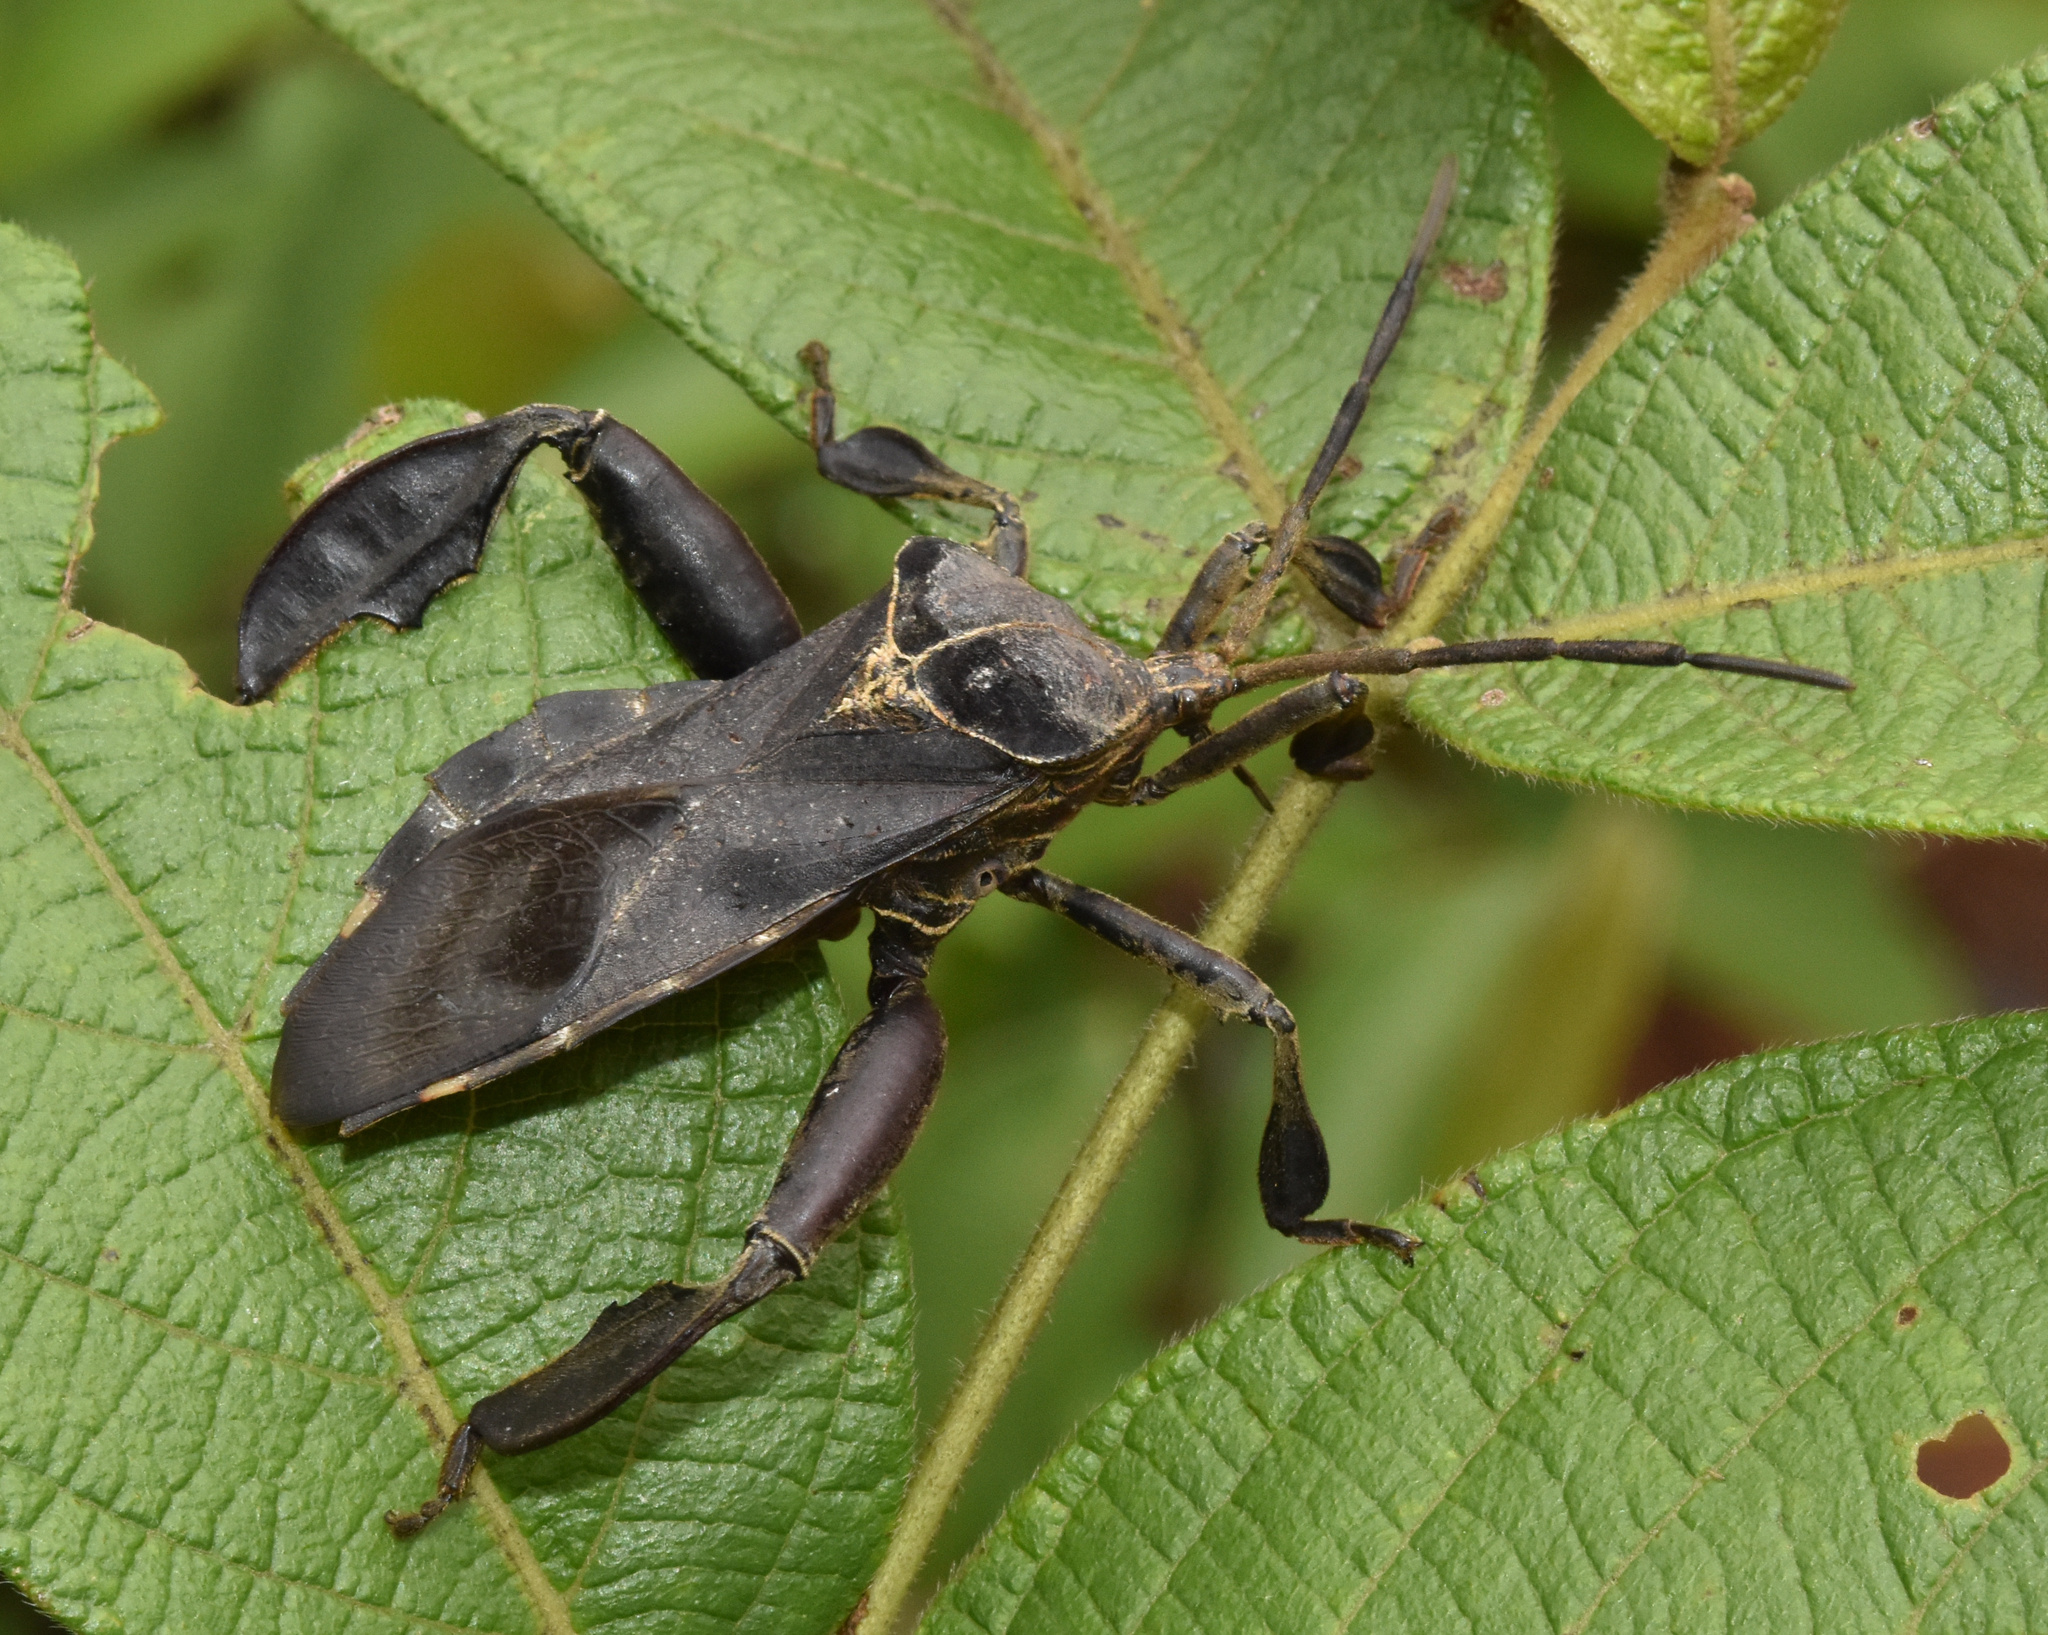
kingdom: Animalia
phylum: Arthropoda
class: Insecta
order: Hemiptera
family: Coreidae
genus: Petascelis
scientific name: Petascelis remipes
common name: Giant twig wilter
